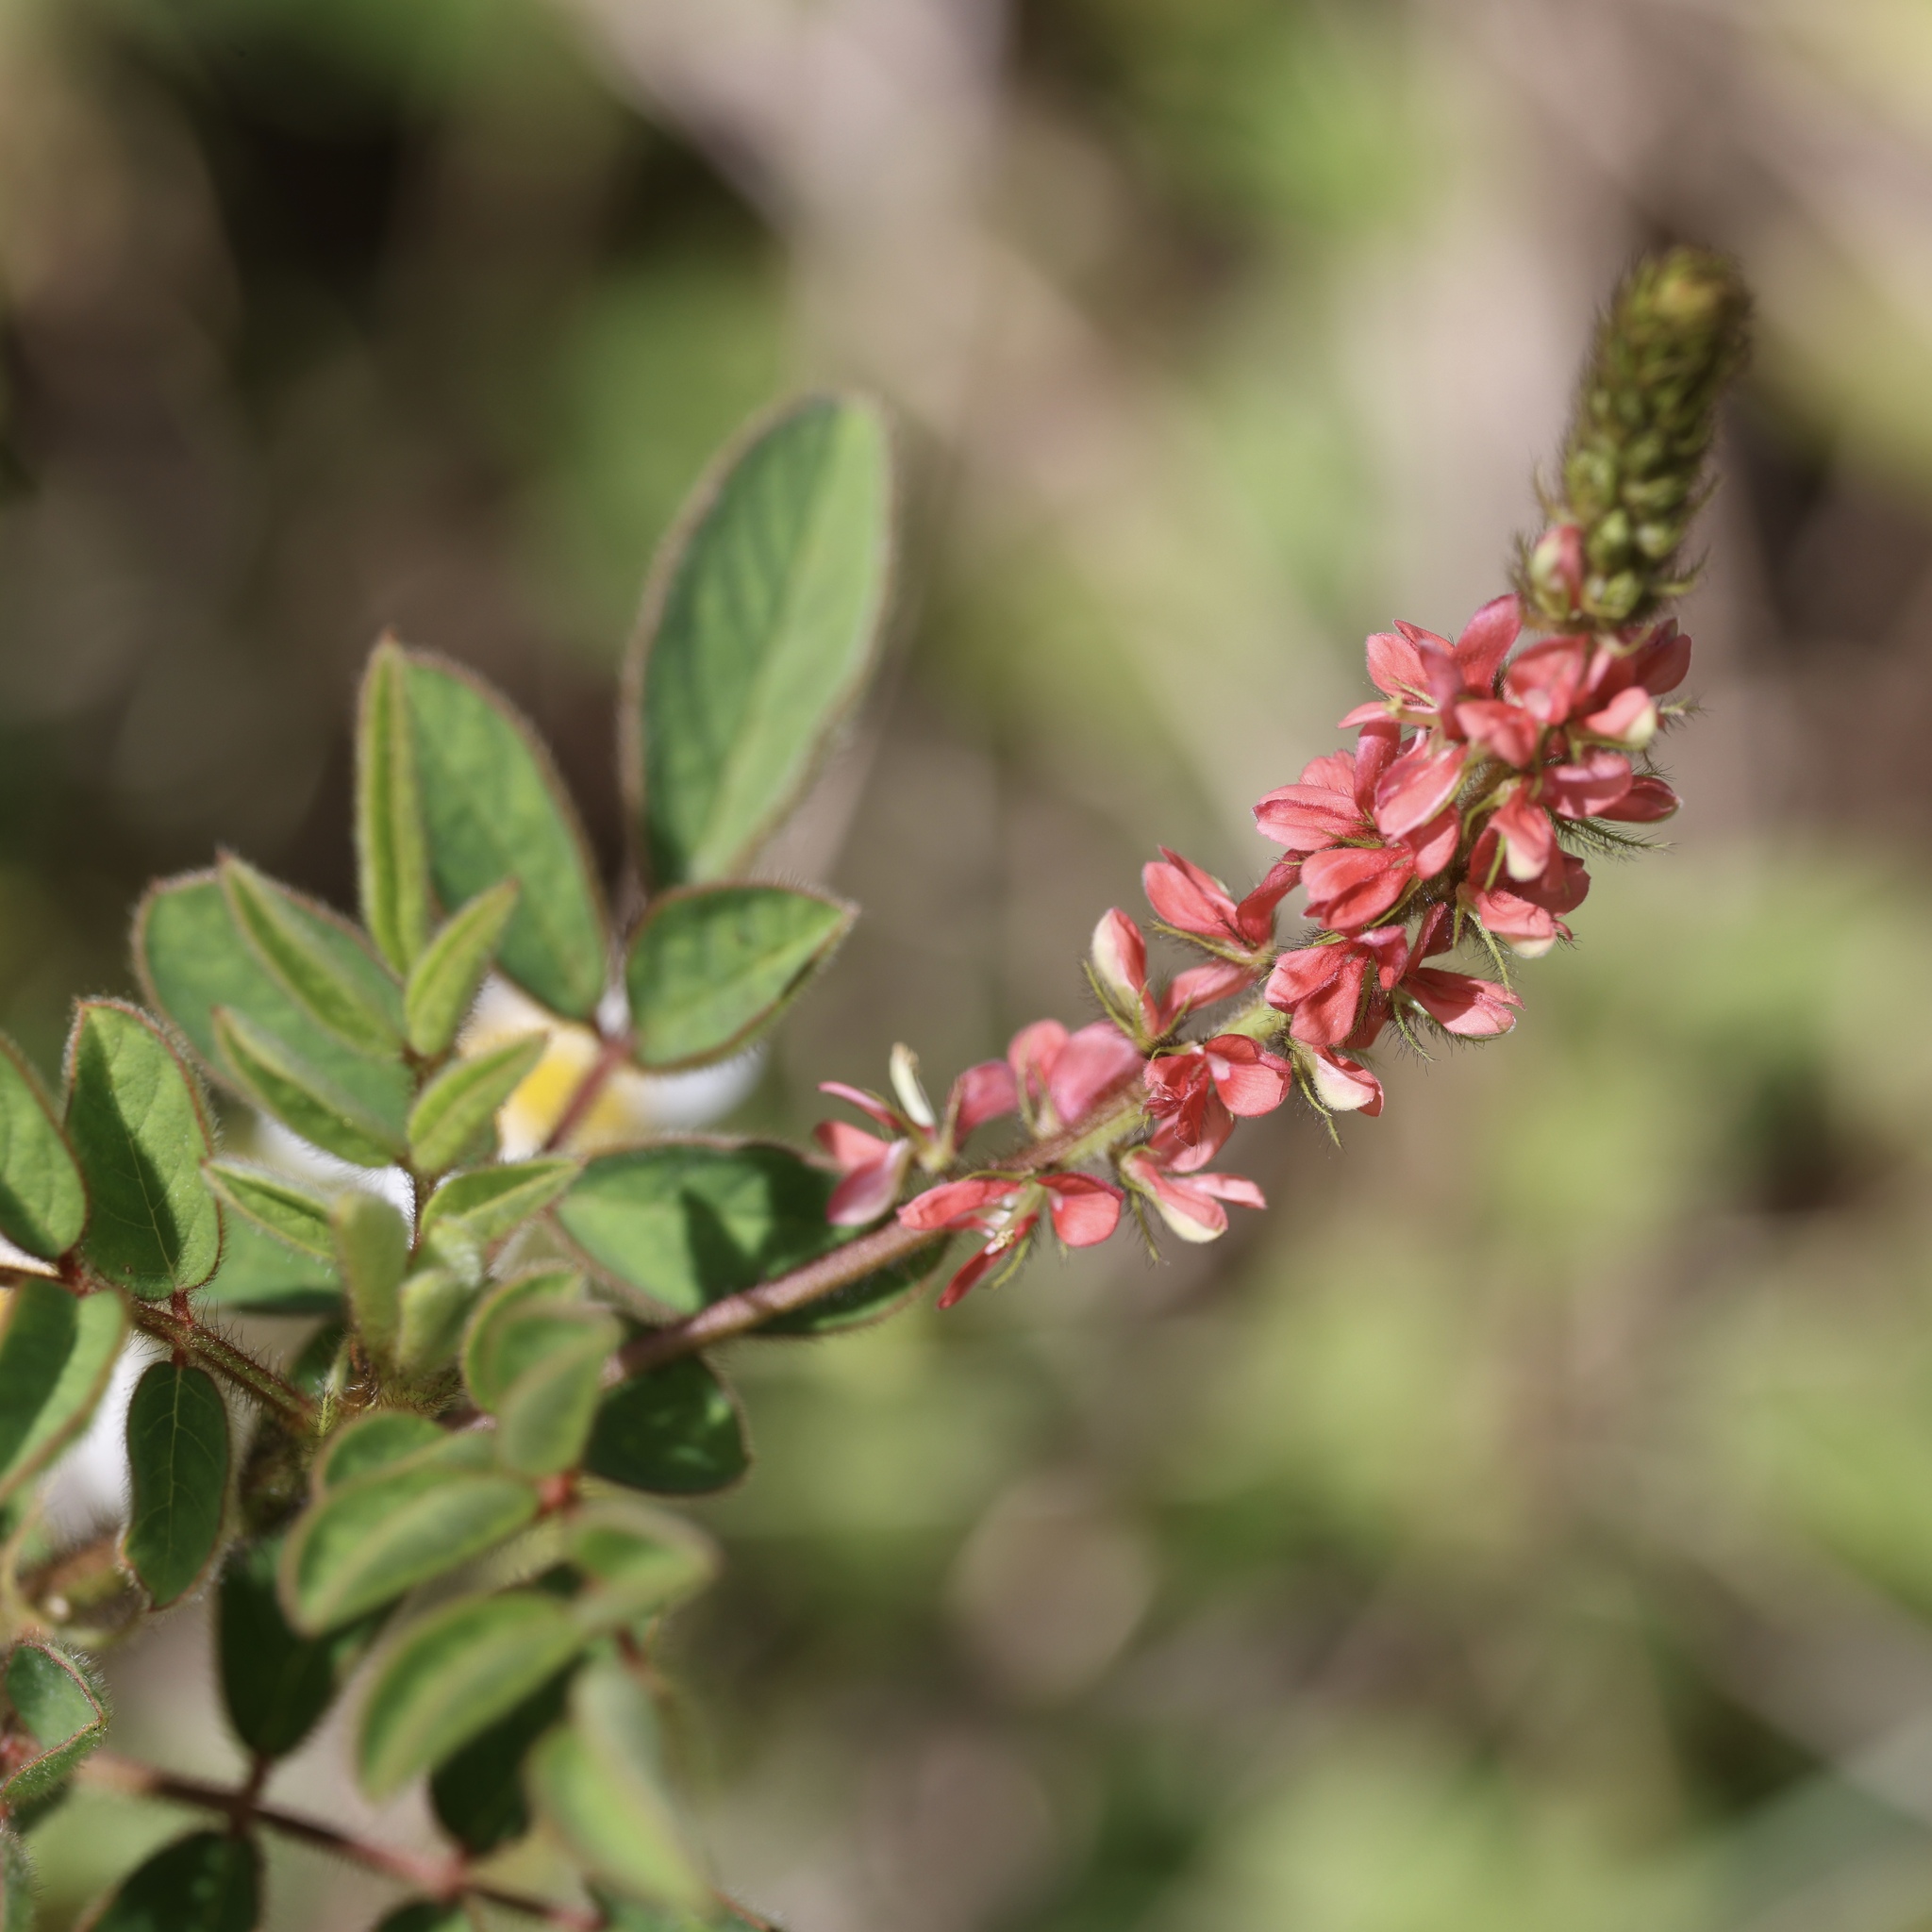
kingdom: Plantae
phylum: Tracheophyta
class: Magnoliopsida
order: Fabales
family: Fabaceae
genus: Indigofera
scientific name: Indigofera hirsuta
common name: Hairy indigo
